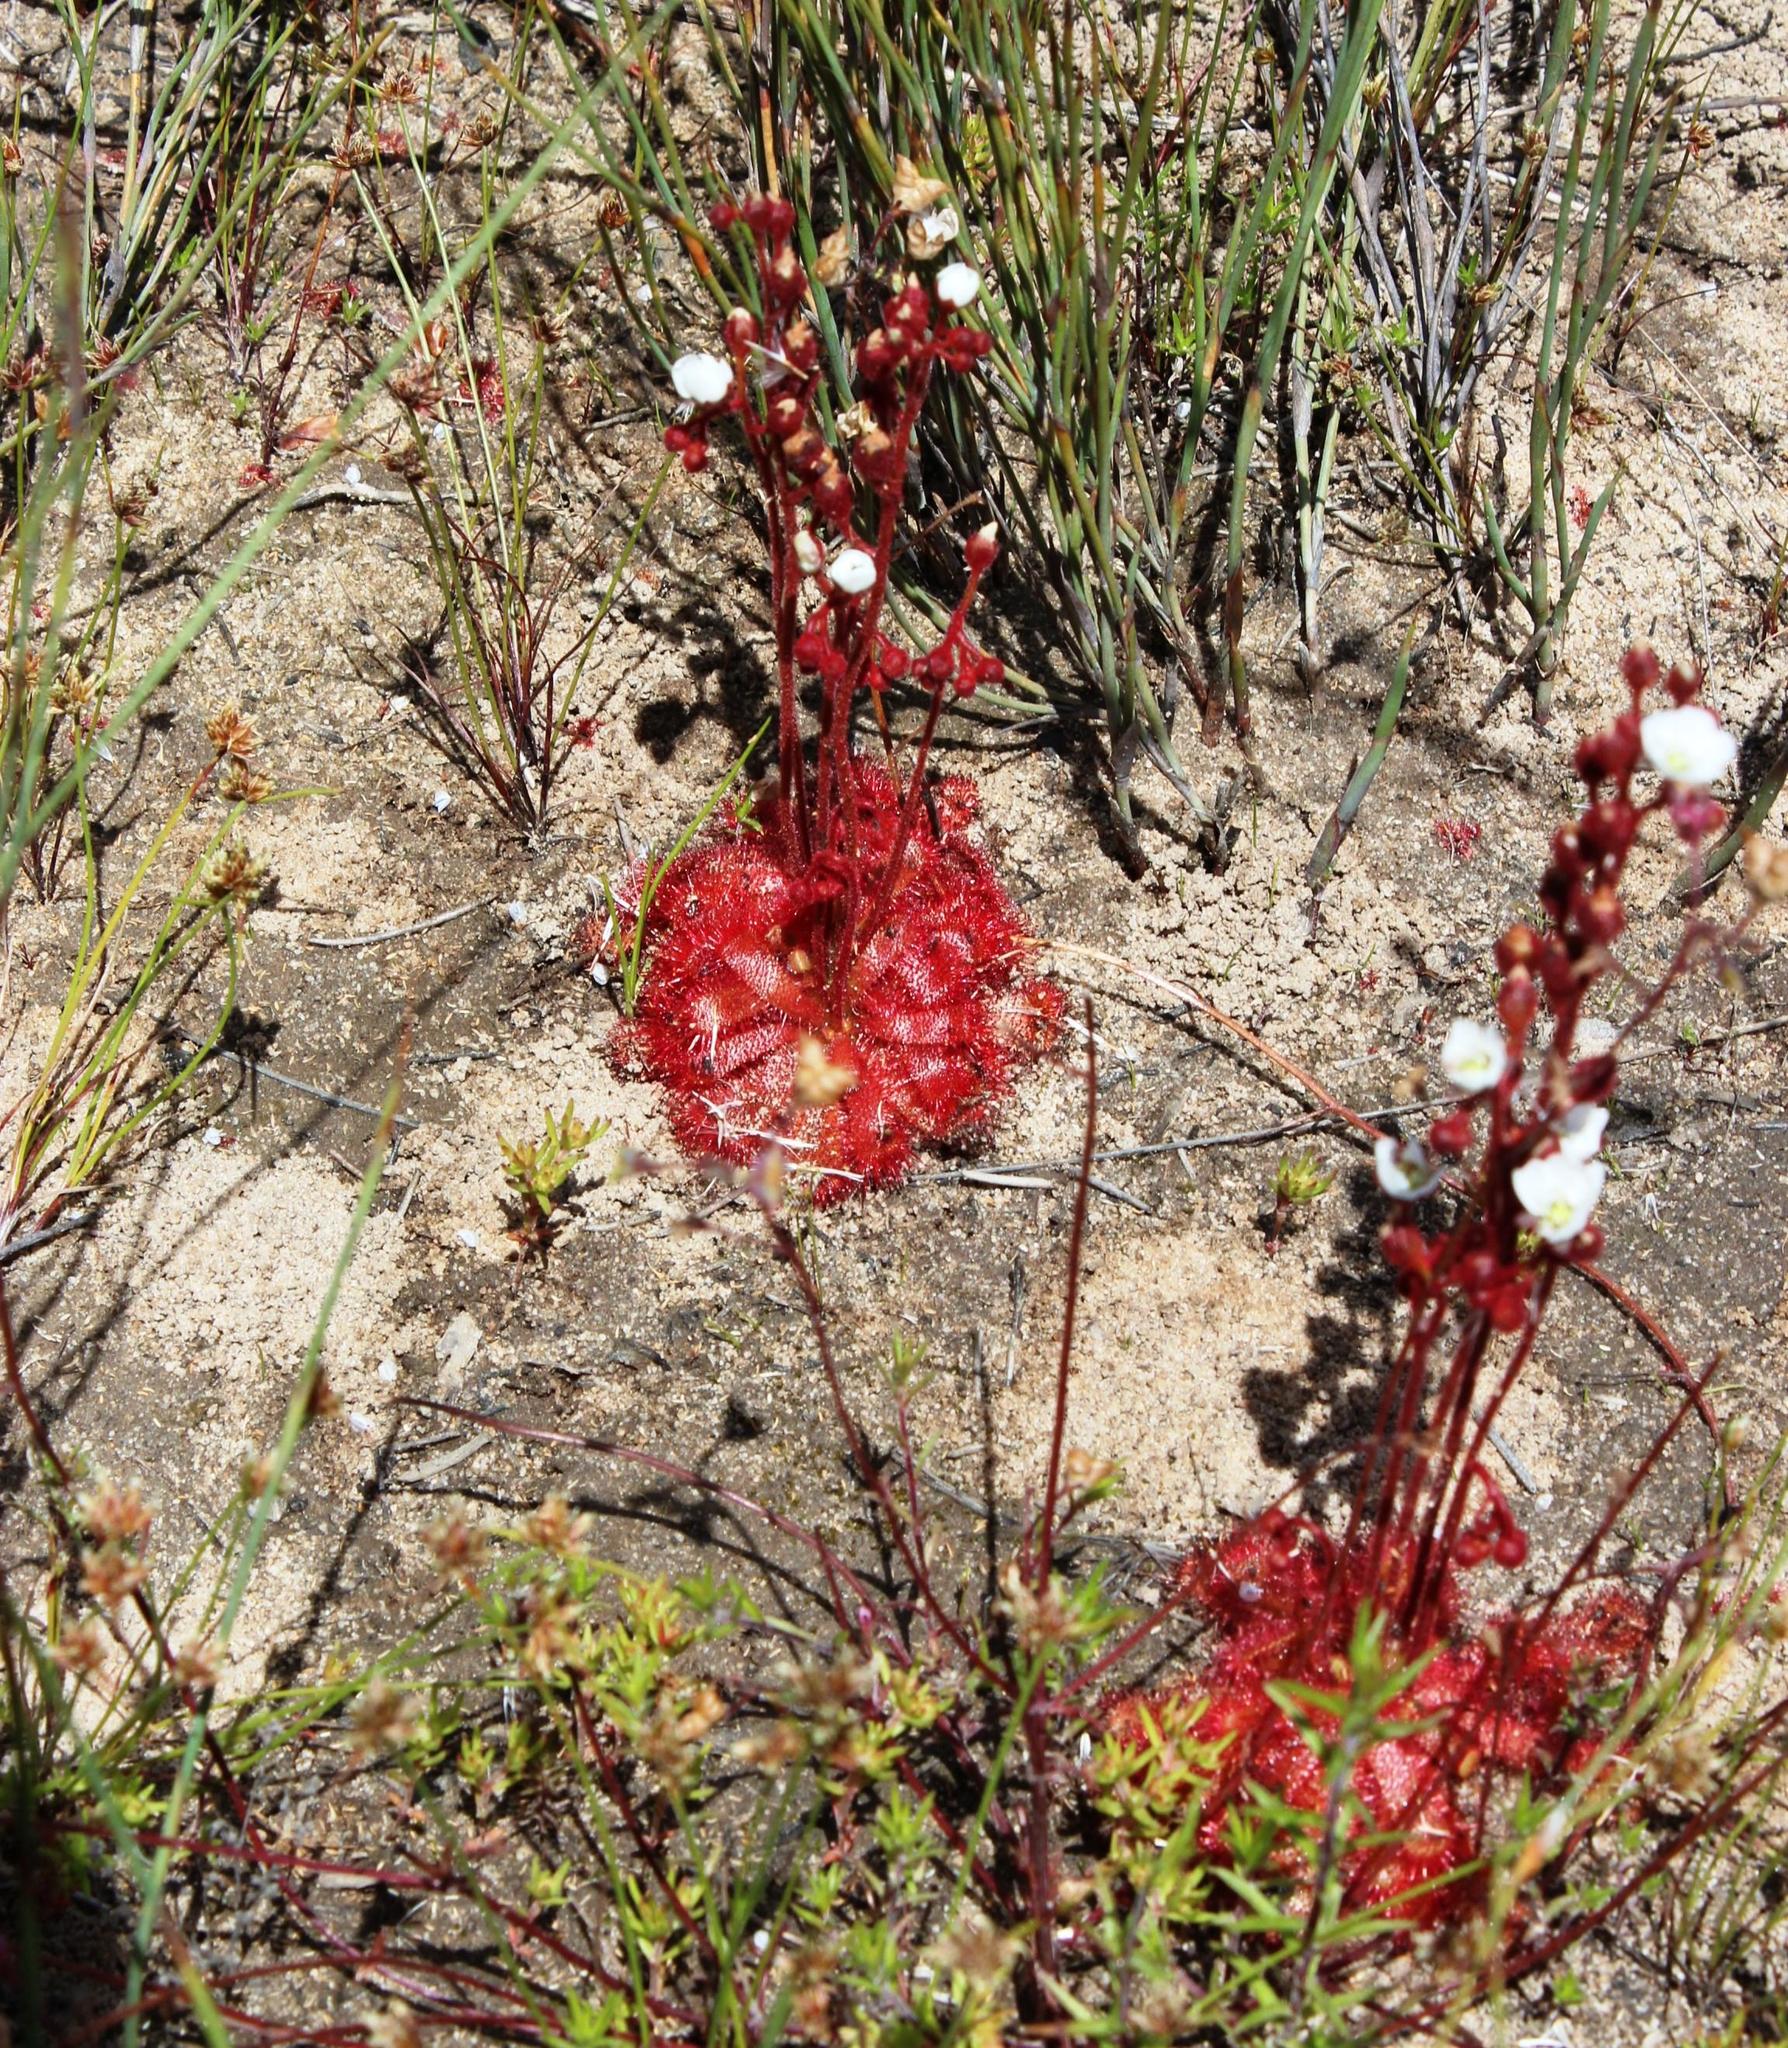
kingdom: Plantae
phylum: Tracheophyta
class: Magnoliopsida
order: Caryophyllales
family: Droseraceae
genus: Drosera
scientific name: Drosera trinervia
